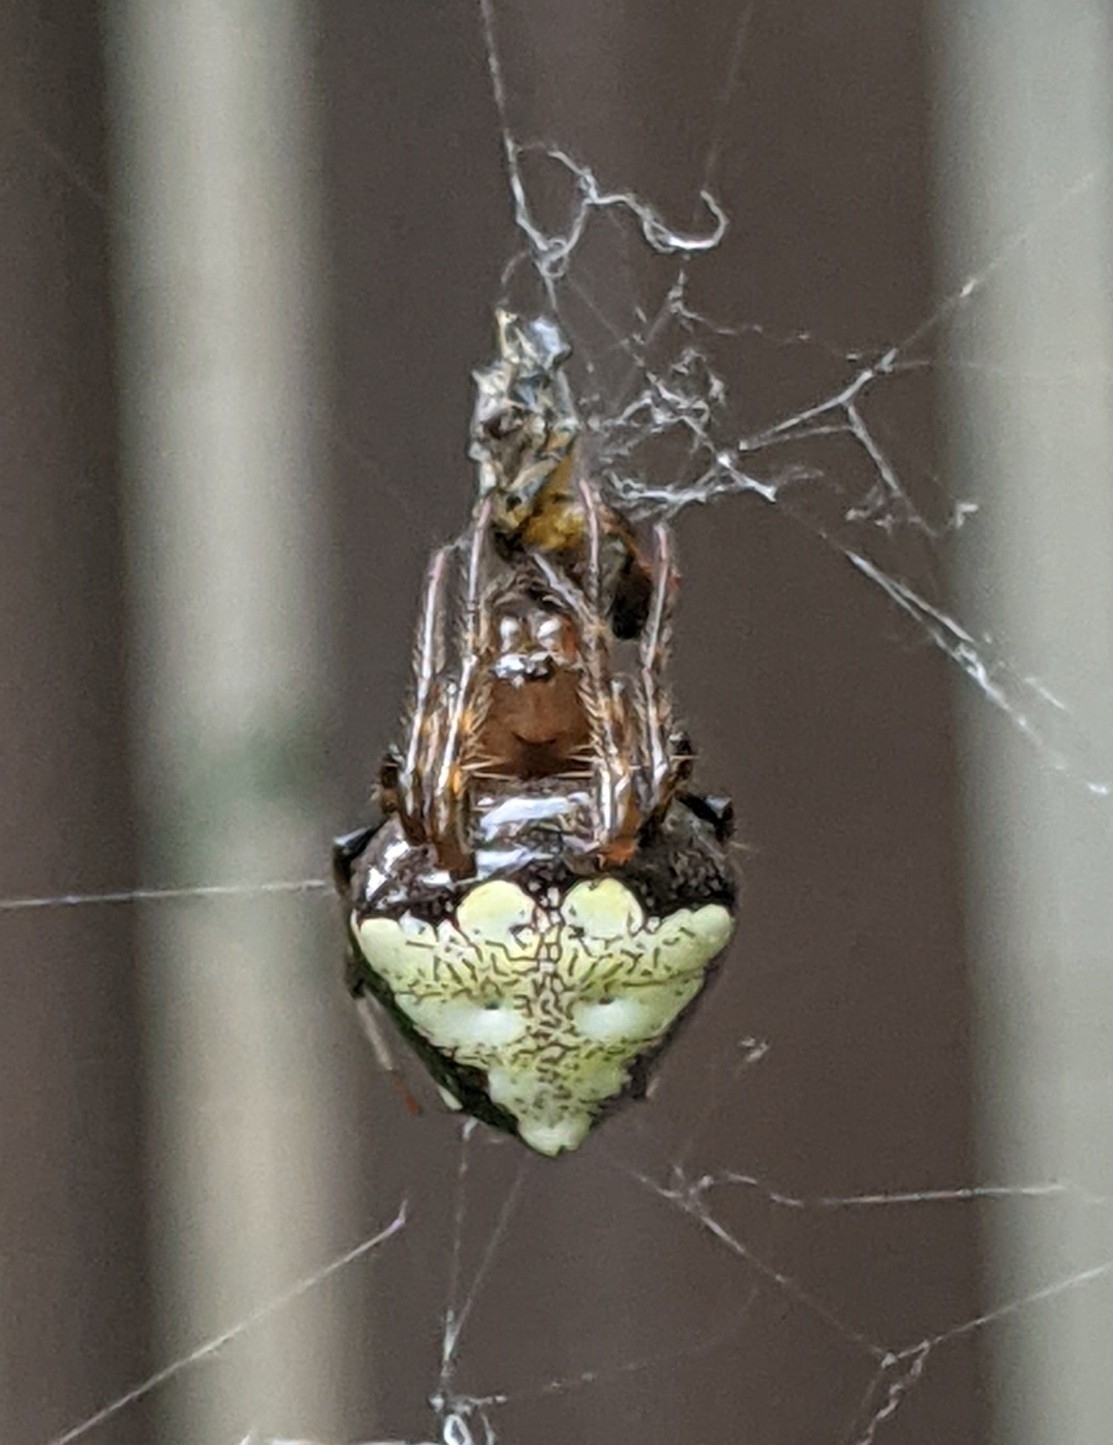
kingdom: Animalia
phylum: Arthropoda
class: Arachnida
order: Araneae
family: Araneidae
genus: Verrucosa
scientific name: Verrucosa arenata
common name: Orb weavers
